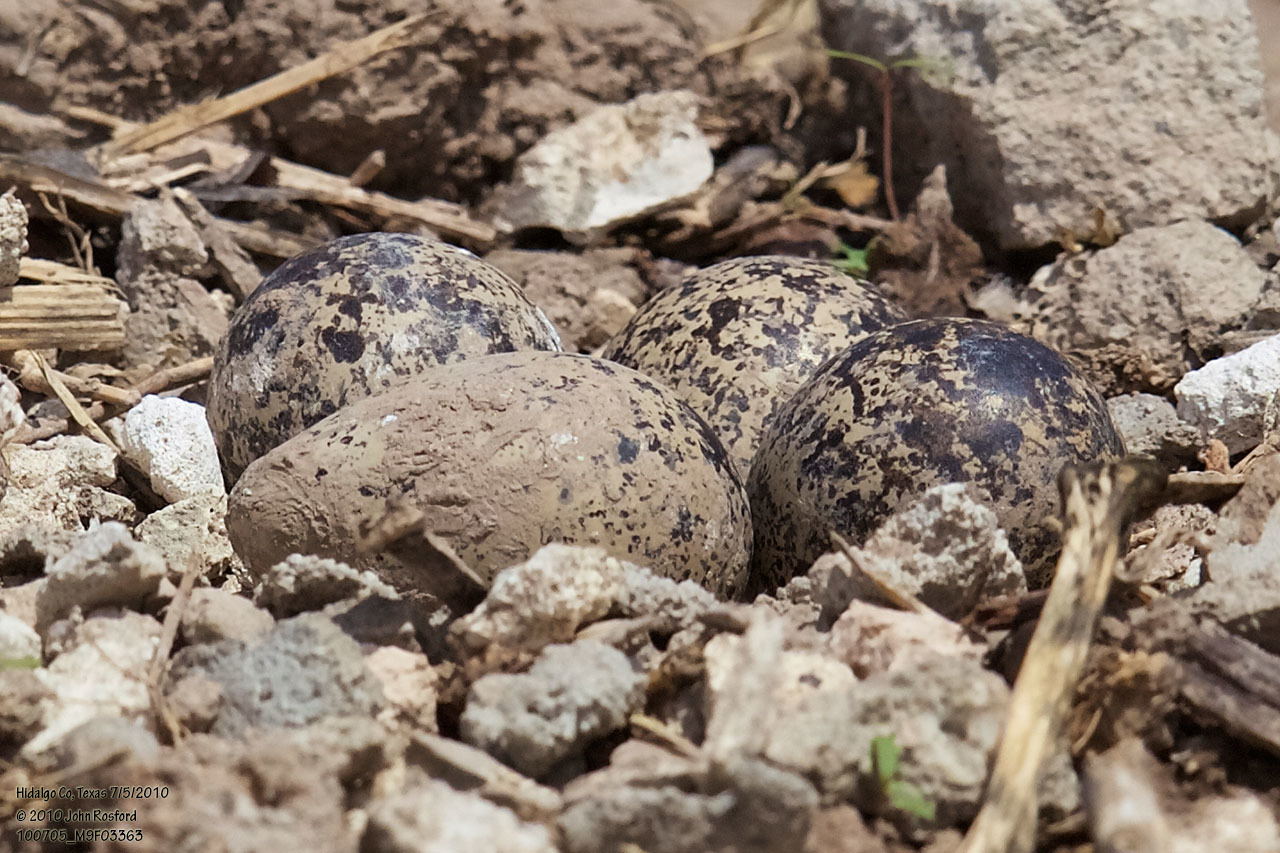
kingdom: Animalia
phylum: Chordata
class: Aves
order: Charadriiformes
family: Charadriidae
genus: Charadrius
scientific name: Charadrius vociferus
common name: Killdeer
